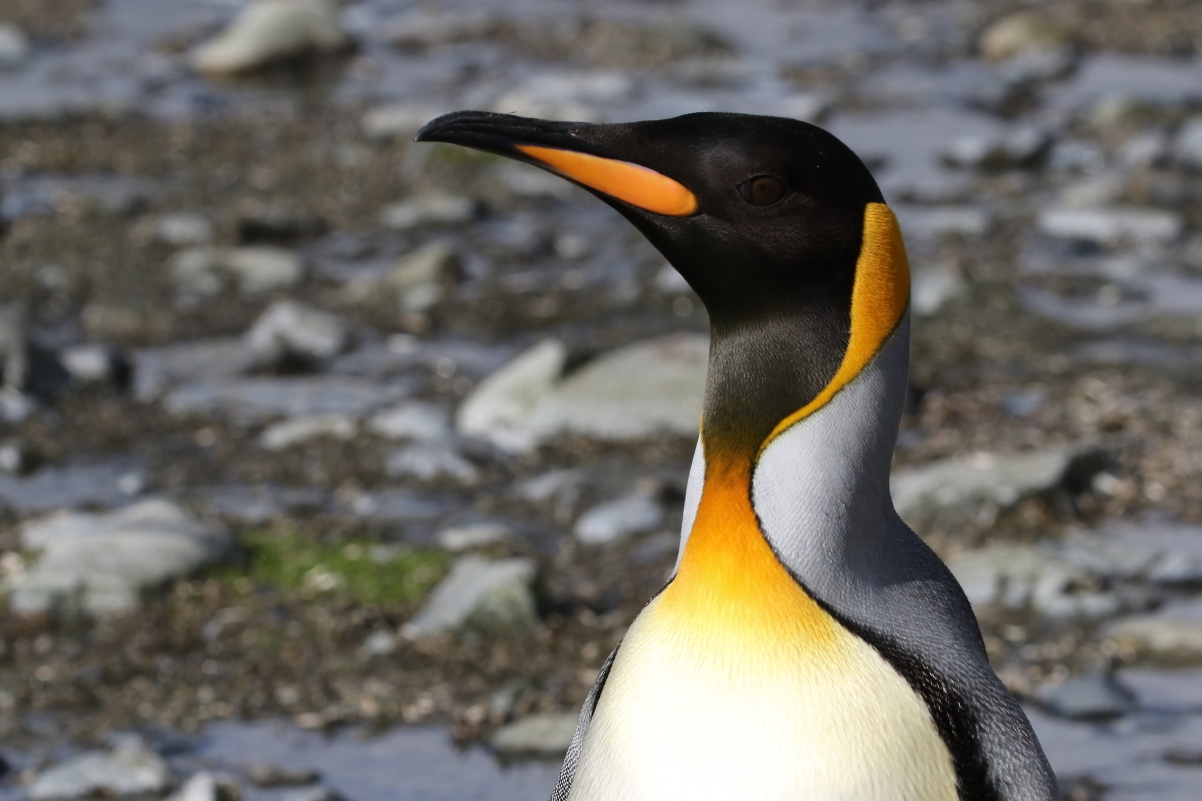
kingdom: Animalia
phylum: Chordata
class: Aves
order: Sphenisciformes
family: Spheniscidae
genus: Aptenodytes
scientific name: Aptenodytes patagonicus
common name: King penguin
